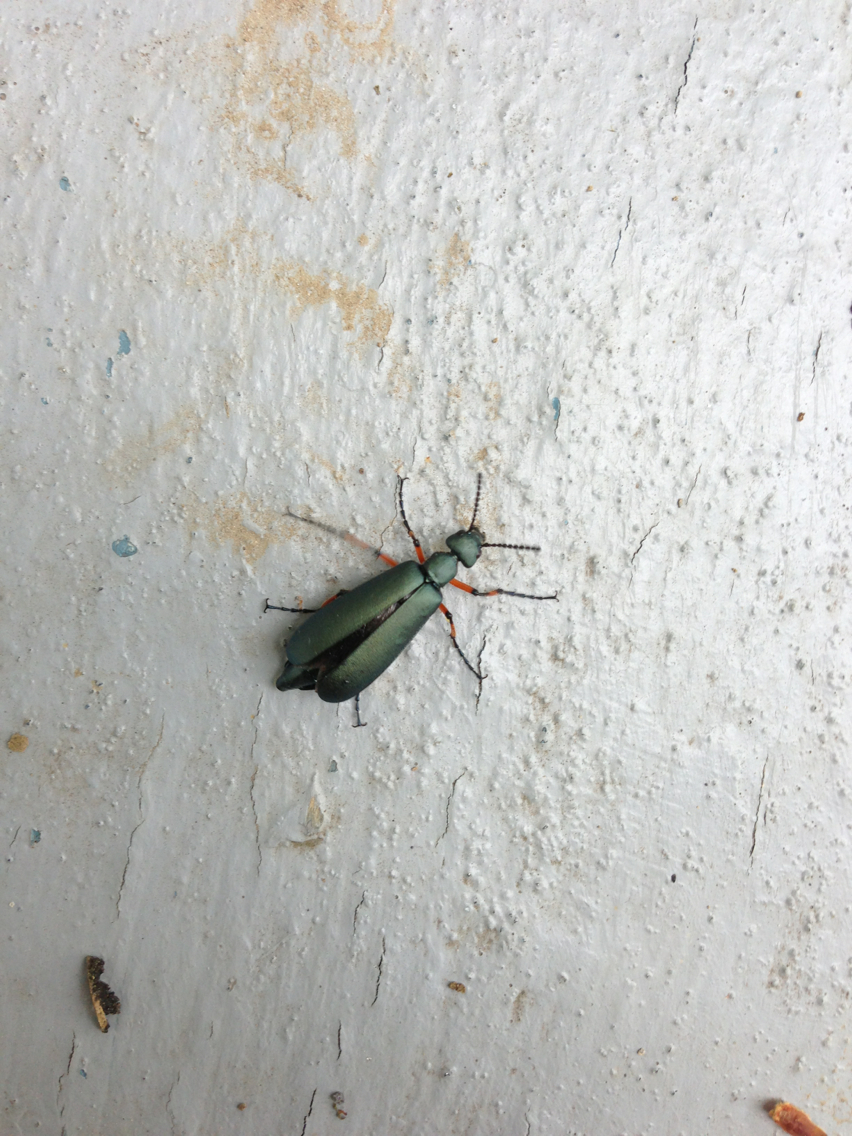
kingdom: Animalia
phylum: Arthropoda
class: Insecta
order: Coleoptera
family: Meloidae
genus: Lytta
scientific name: Lytta sayi
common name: Say's blister beetle
